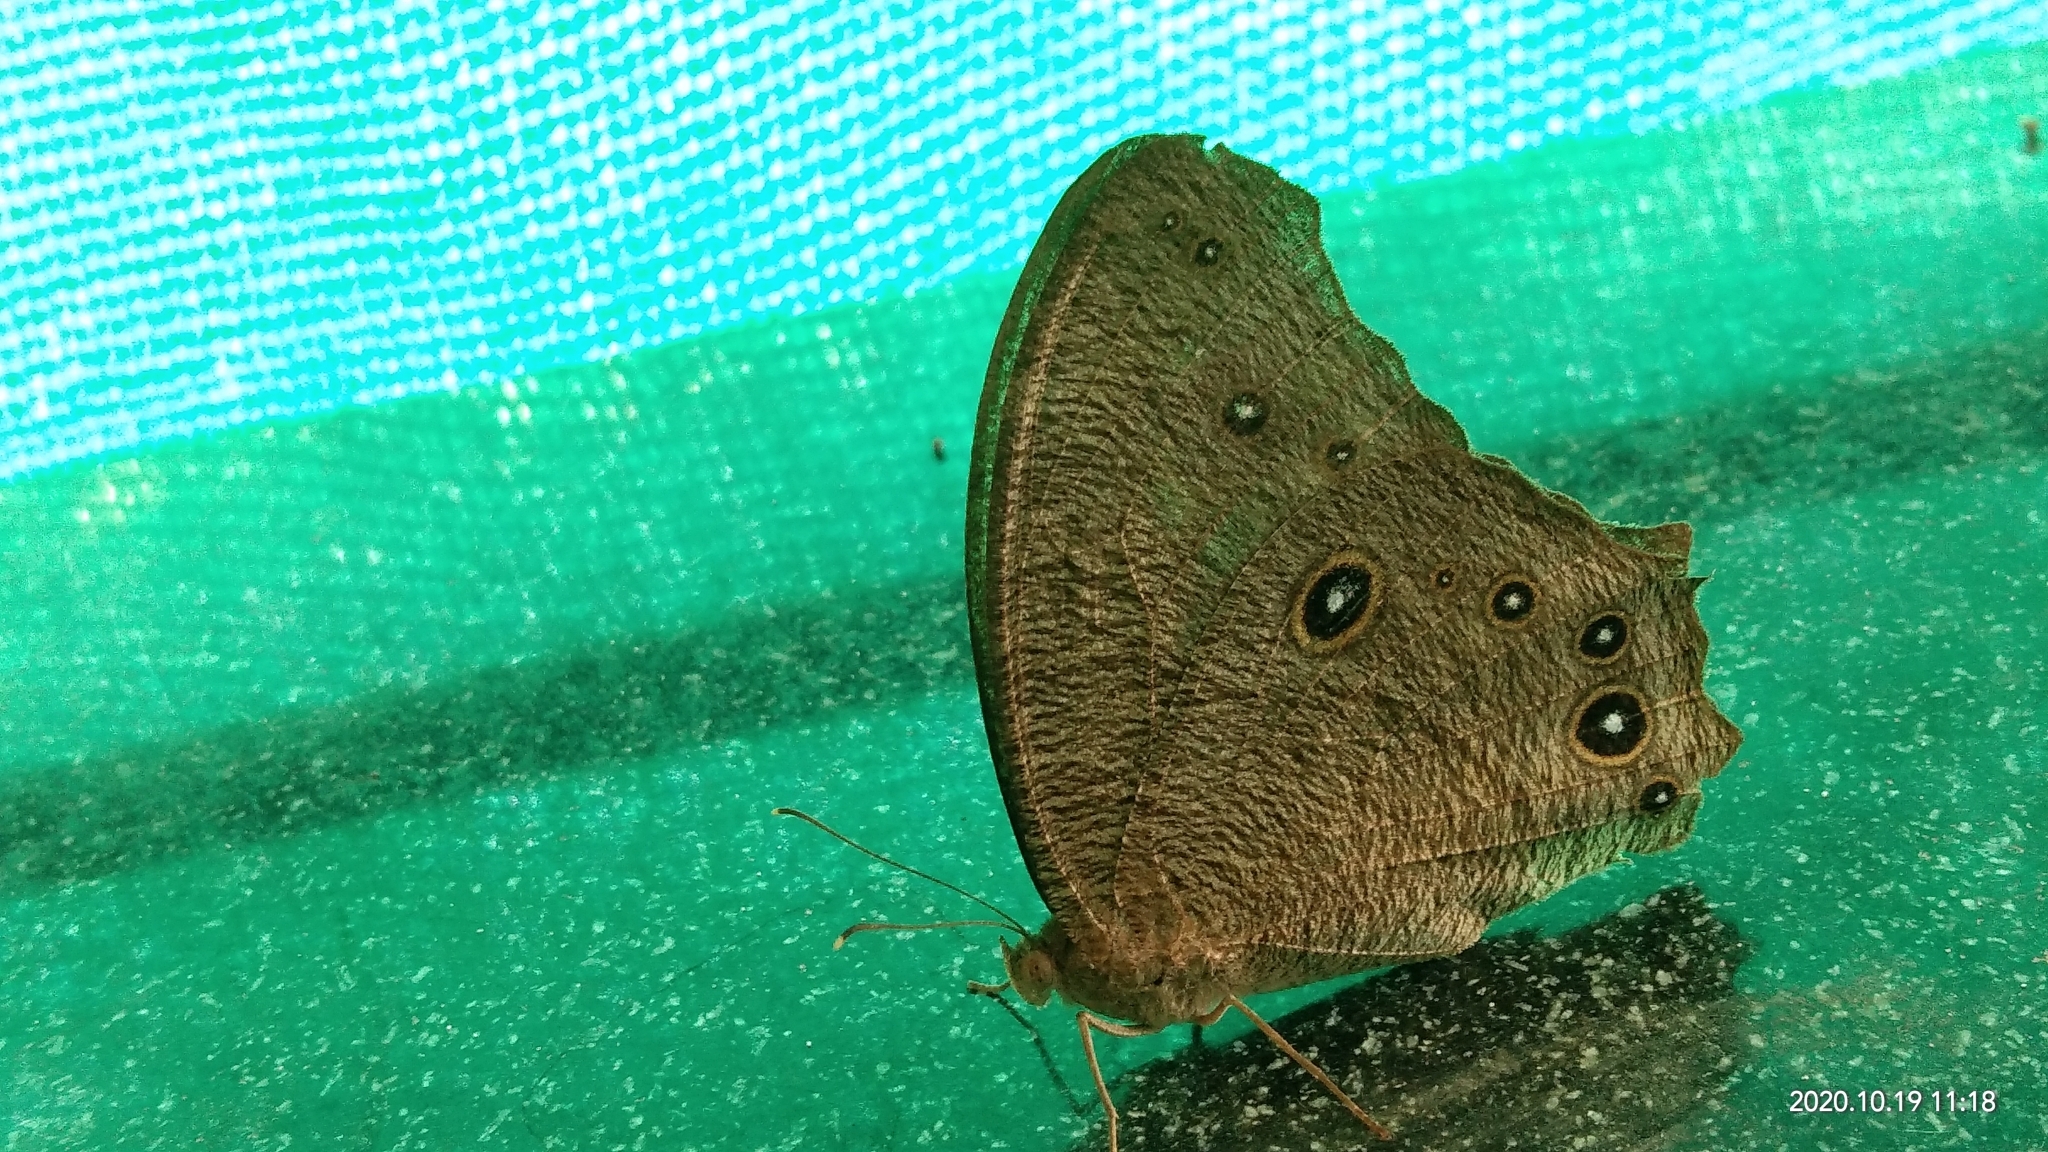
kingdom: Animalia
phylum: Arthropoda
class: Insecta
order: Lepidoptera
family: Nymphalidae
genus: Melanitis
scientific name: Melanitis leda
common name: Twilight brown
